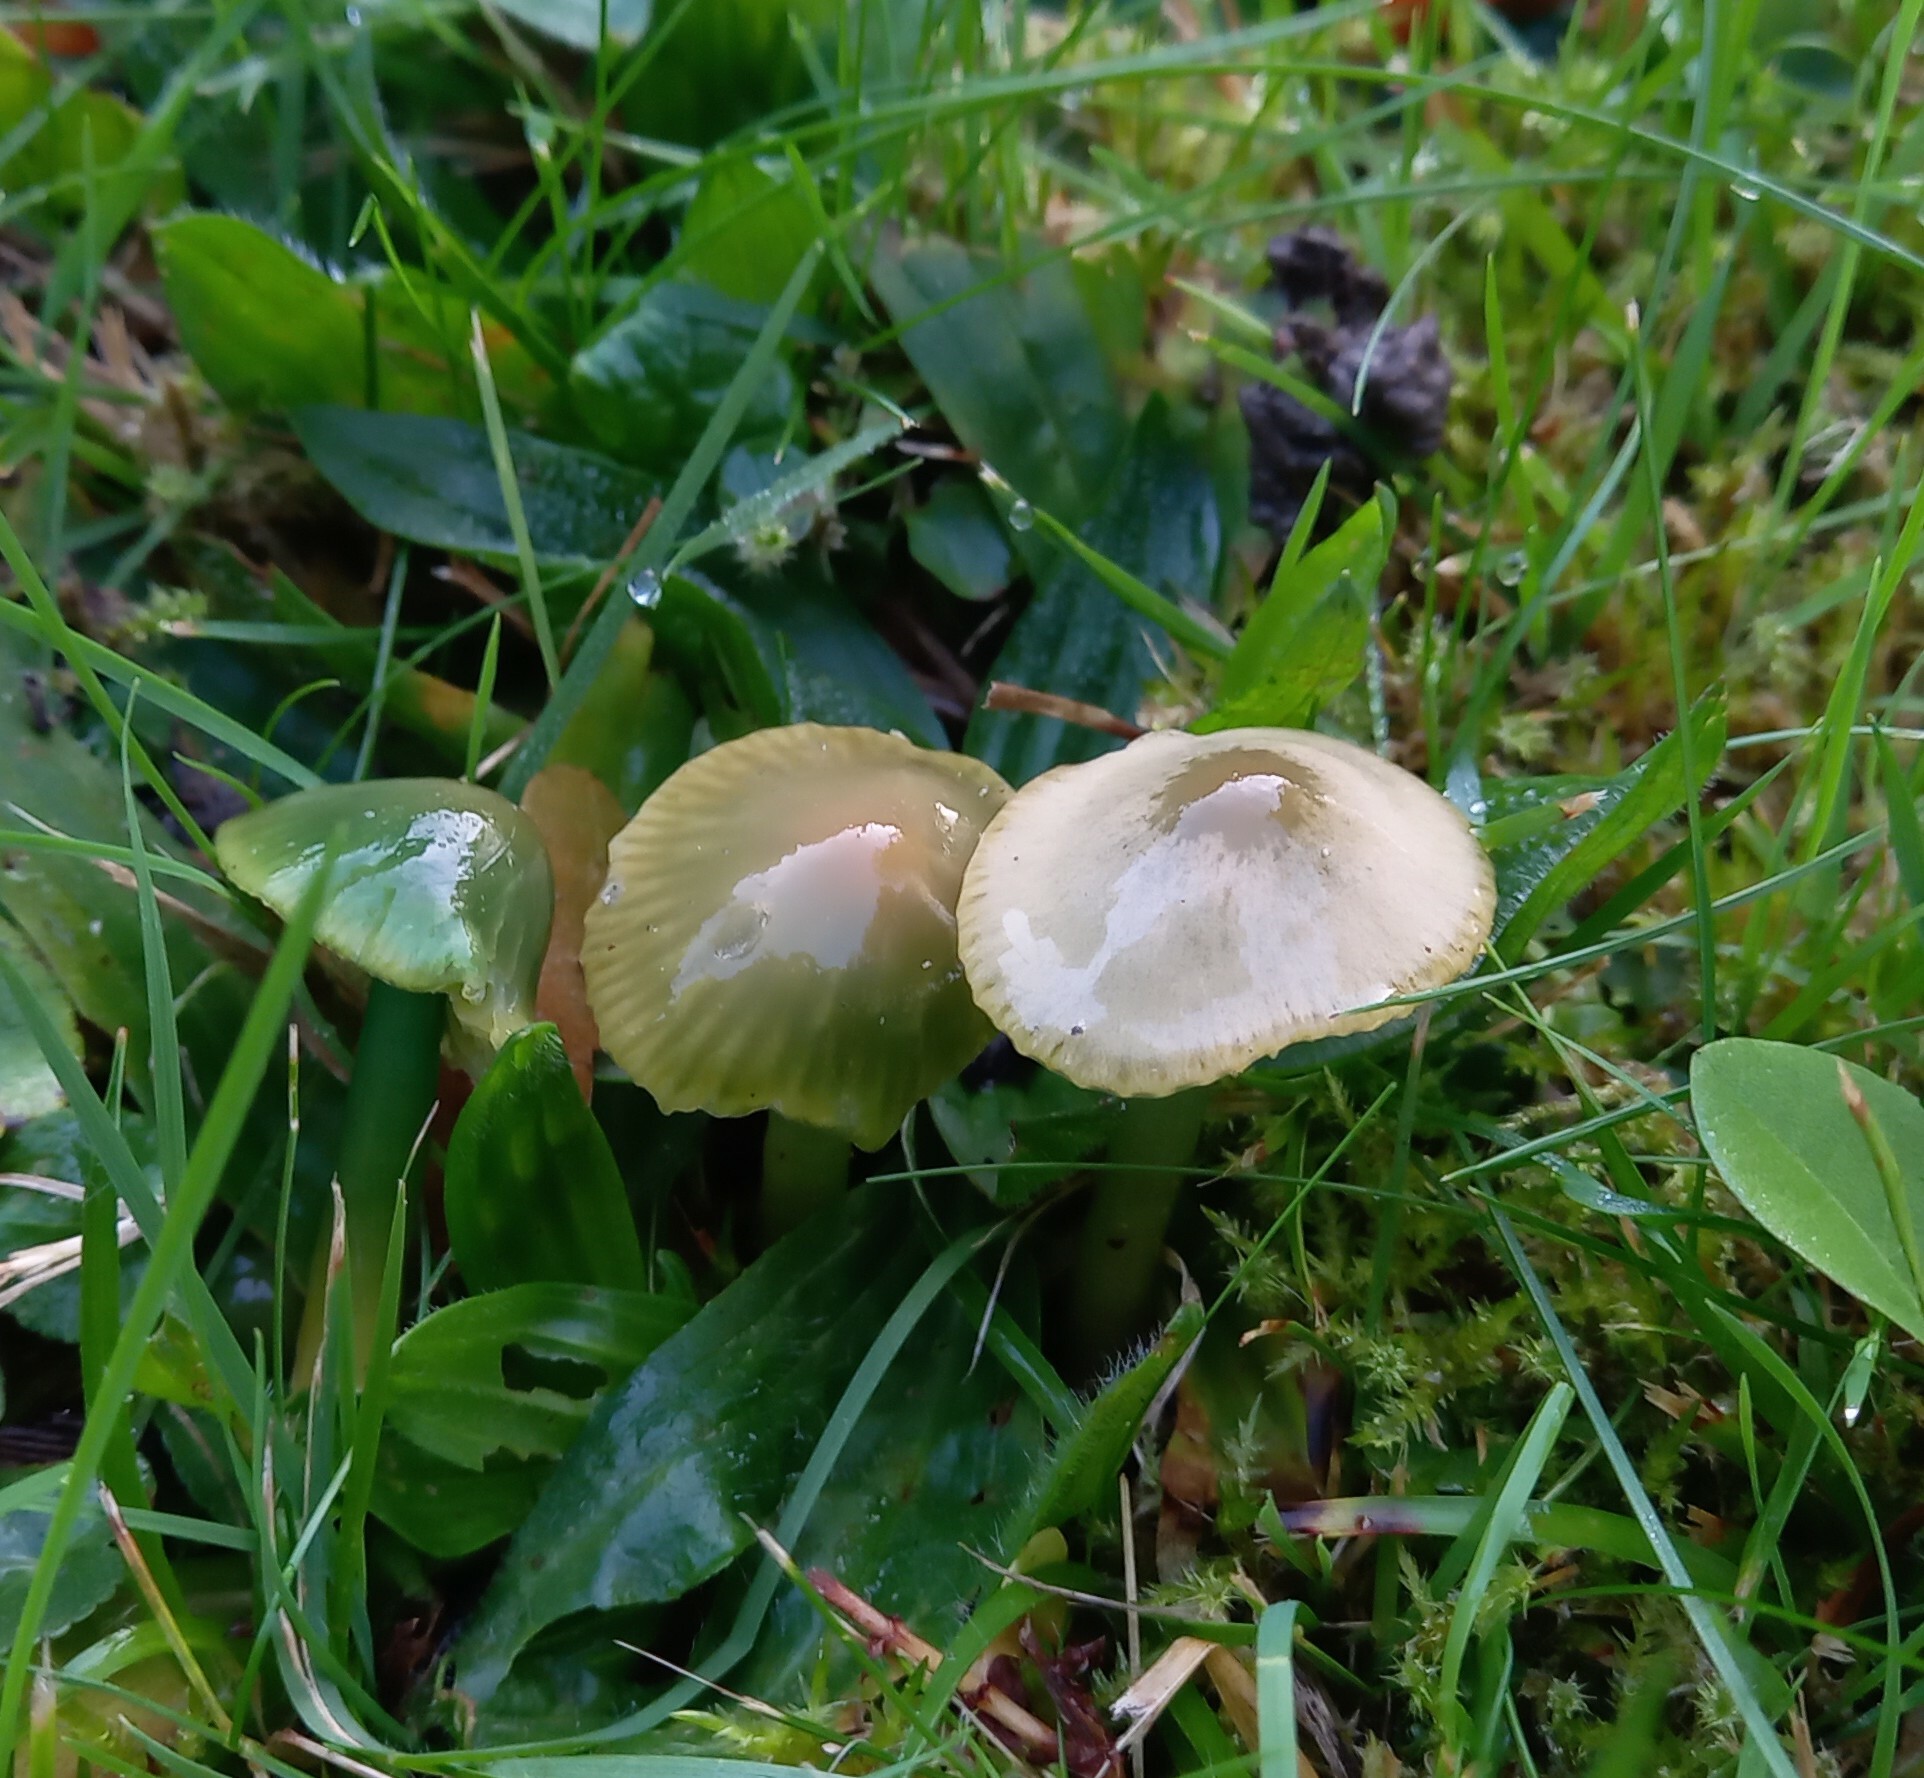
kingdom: Fungi
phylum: Basidiomycota
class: Agaricomycetes
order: Agaricales
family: Hygrophoraceae
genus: Gliophorus
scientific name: Gliophorus psittacinus
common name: Parrot wax-cap
